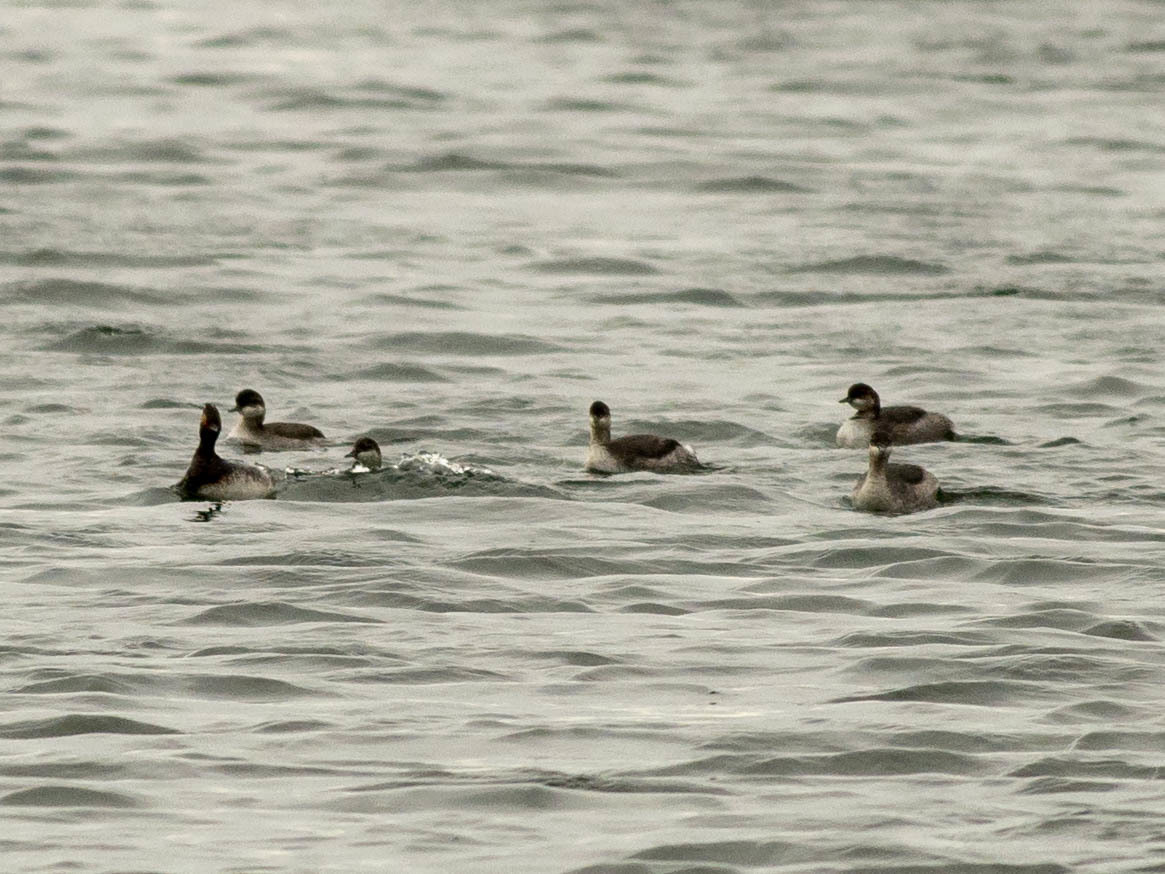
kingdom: Animalia
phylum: Chordata
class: Aves
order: Podicipediformes
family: Podicipedidae
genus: Podiceps
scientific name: Podiceps nigricollis
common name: Black-necked grebe
